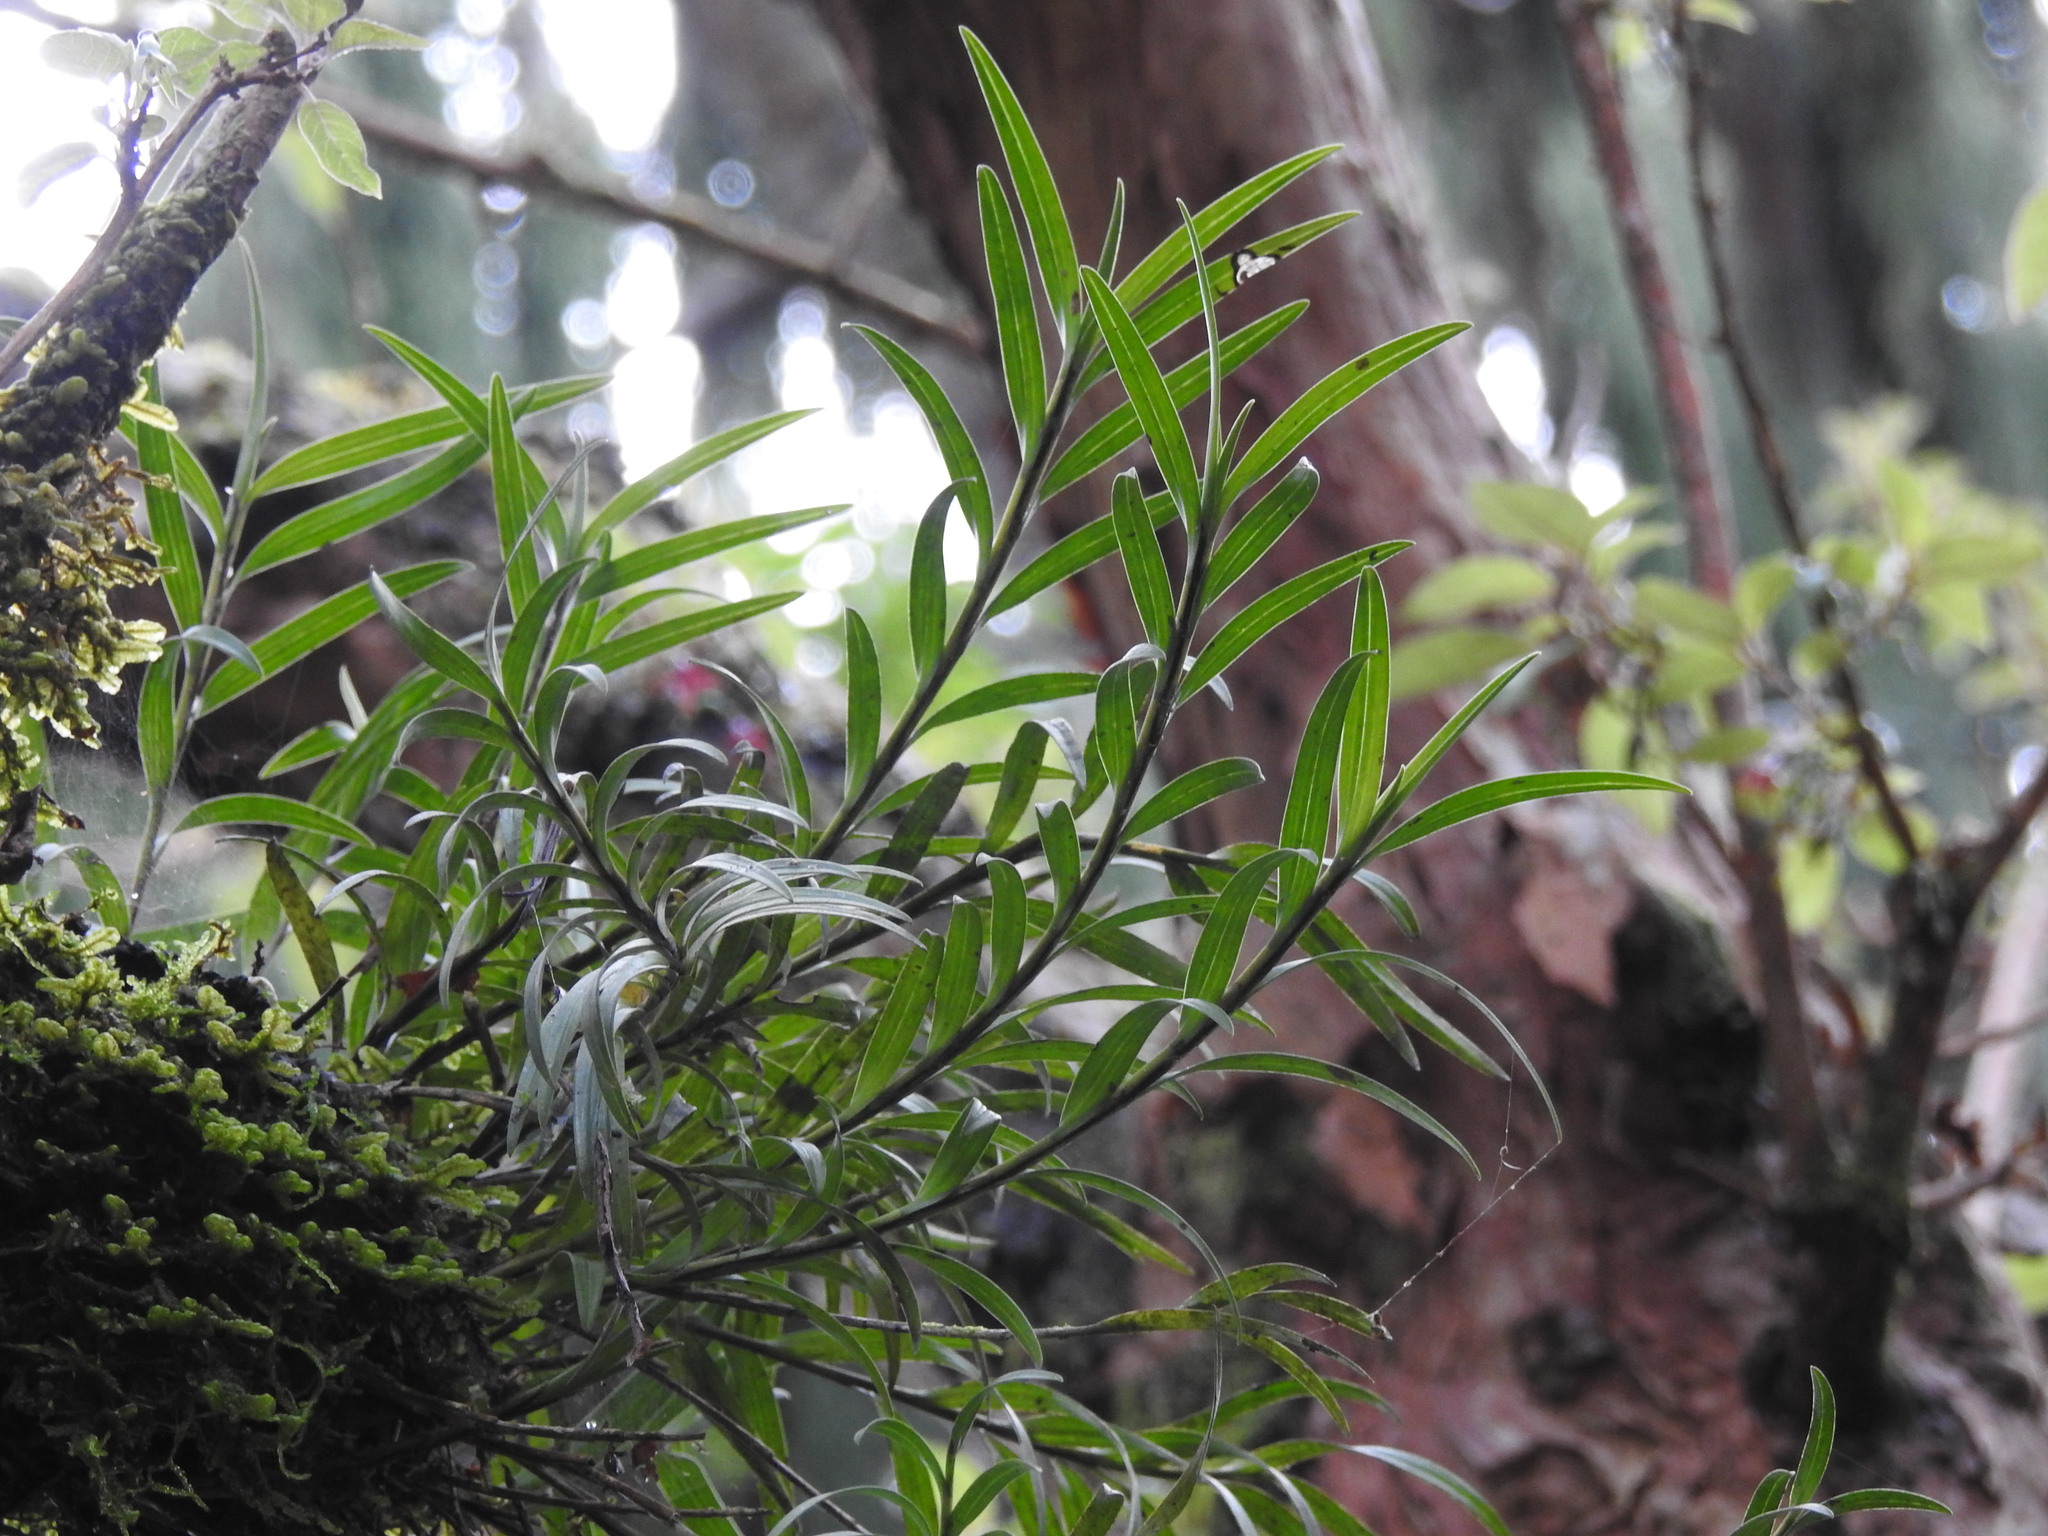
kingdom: Plantae
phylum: Tracheophyta
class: Liliopsida
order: Asparagales
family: Orchidaceae
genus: Earina
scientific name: Earina autumnalis
